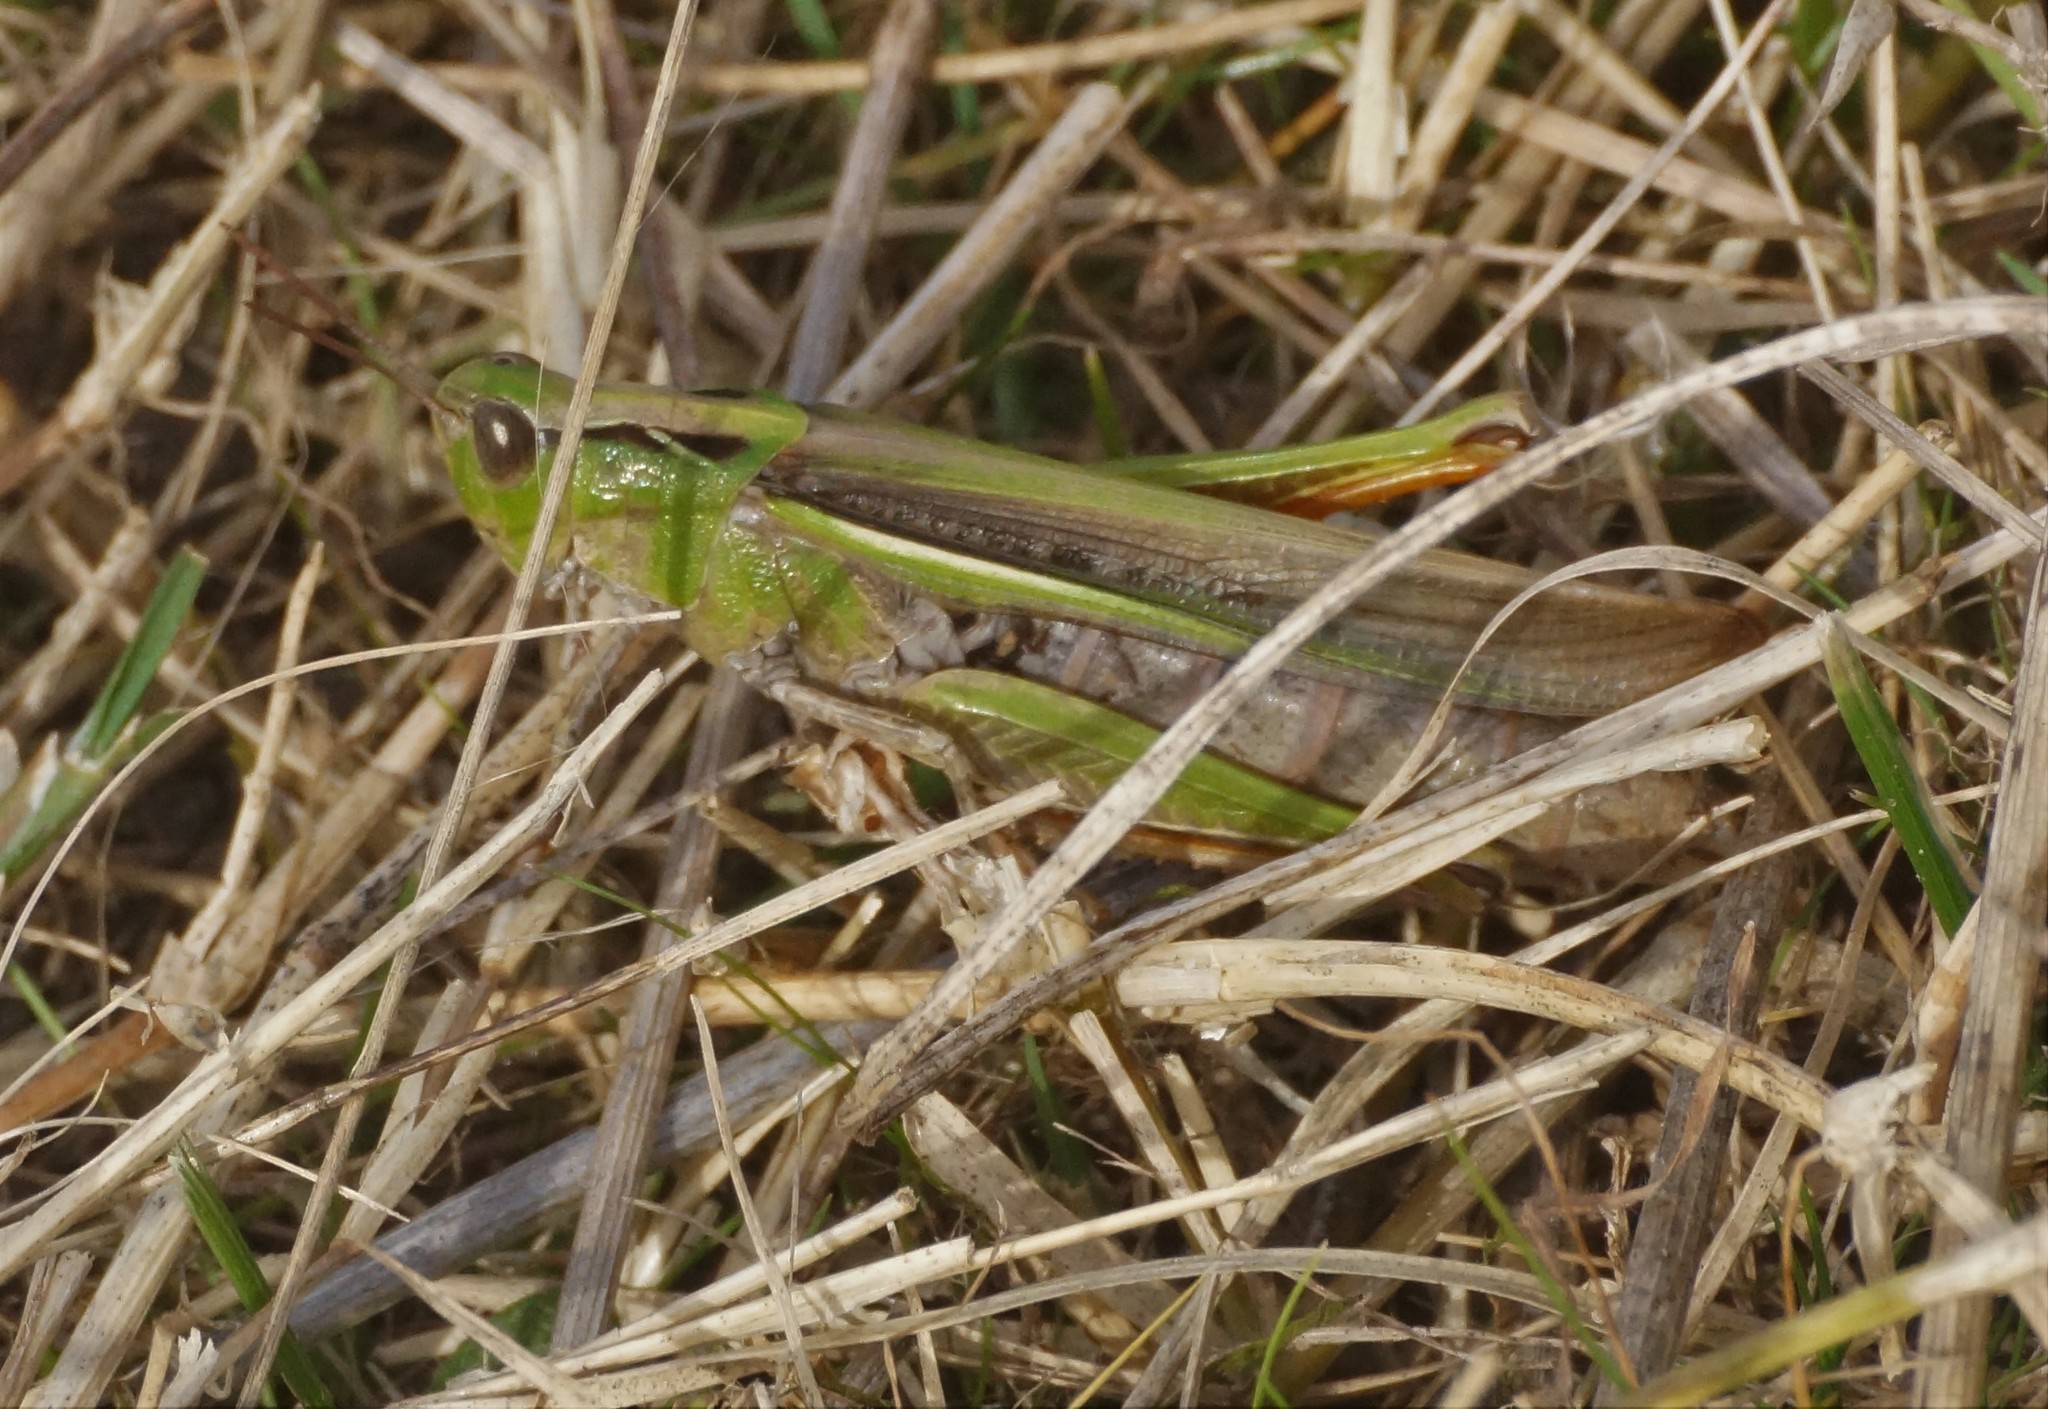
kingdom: Animalia
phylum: Arthropoda
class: Insecta
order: Orthoptera
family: Acrididae
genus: Schizobothrus
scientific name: Schizobothrus flavovittatus
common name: Disappearing grasshopper
